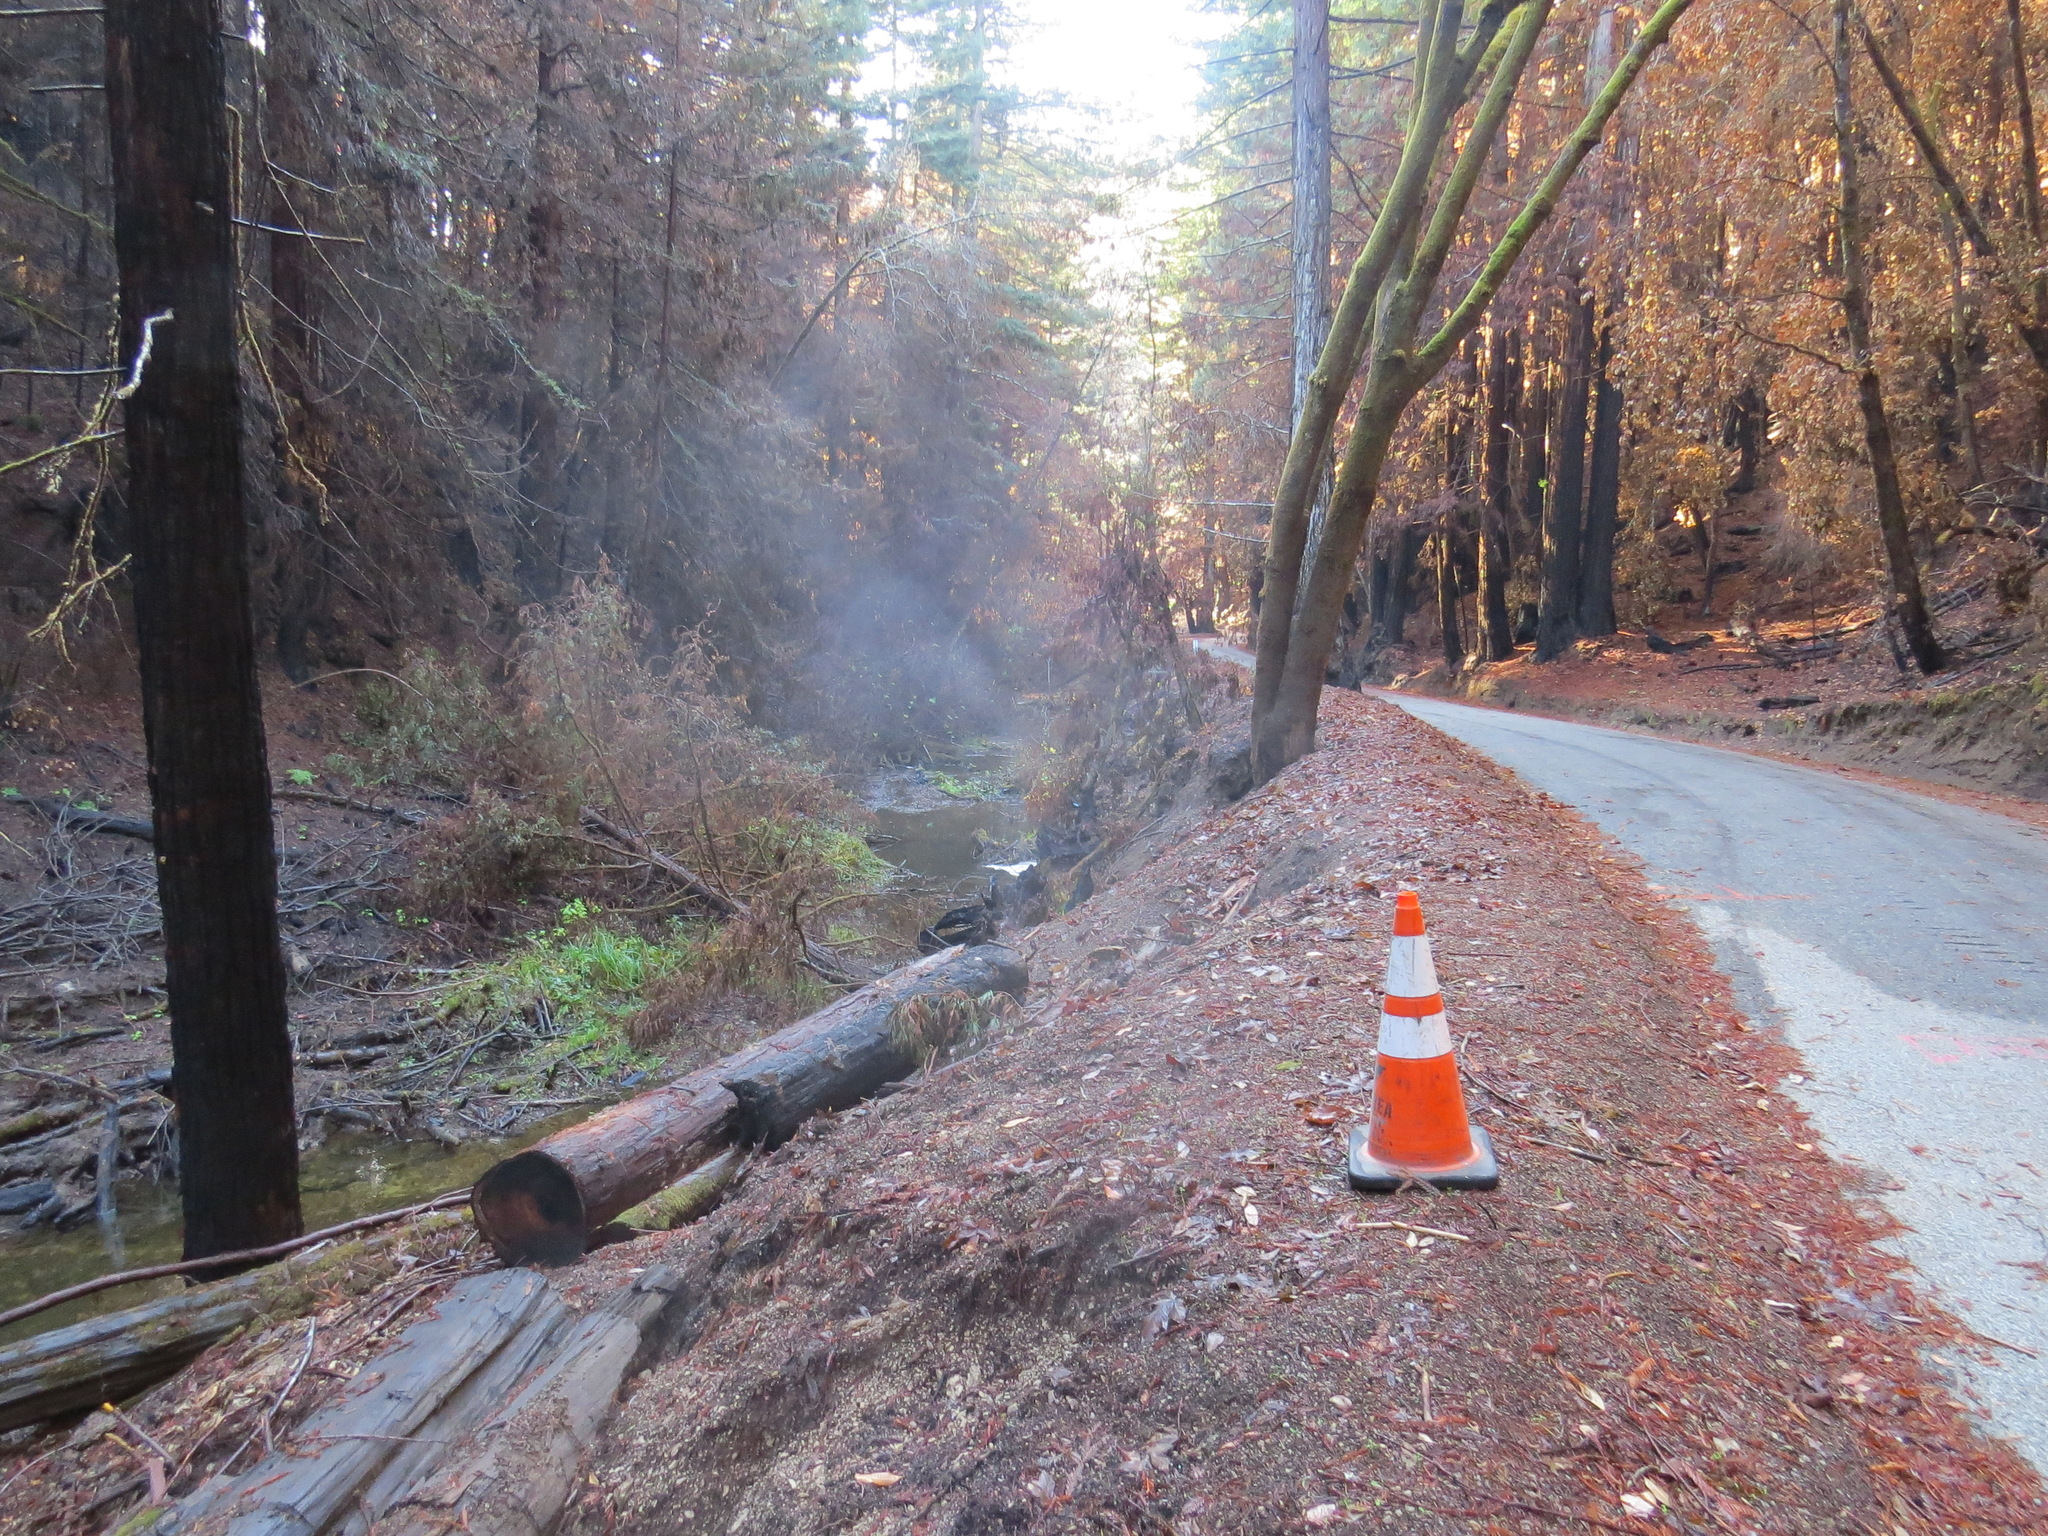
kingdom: Plantae
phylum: Tracheophyta
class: Pinopsida
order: Pinales
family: Cupressaceae
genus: Sequoia
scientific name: Sequoia sempervirens
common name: Coast redwood
